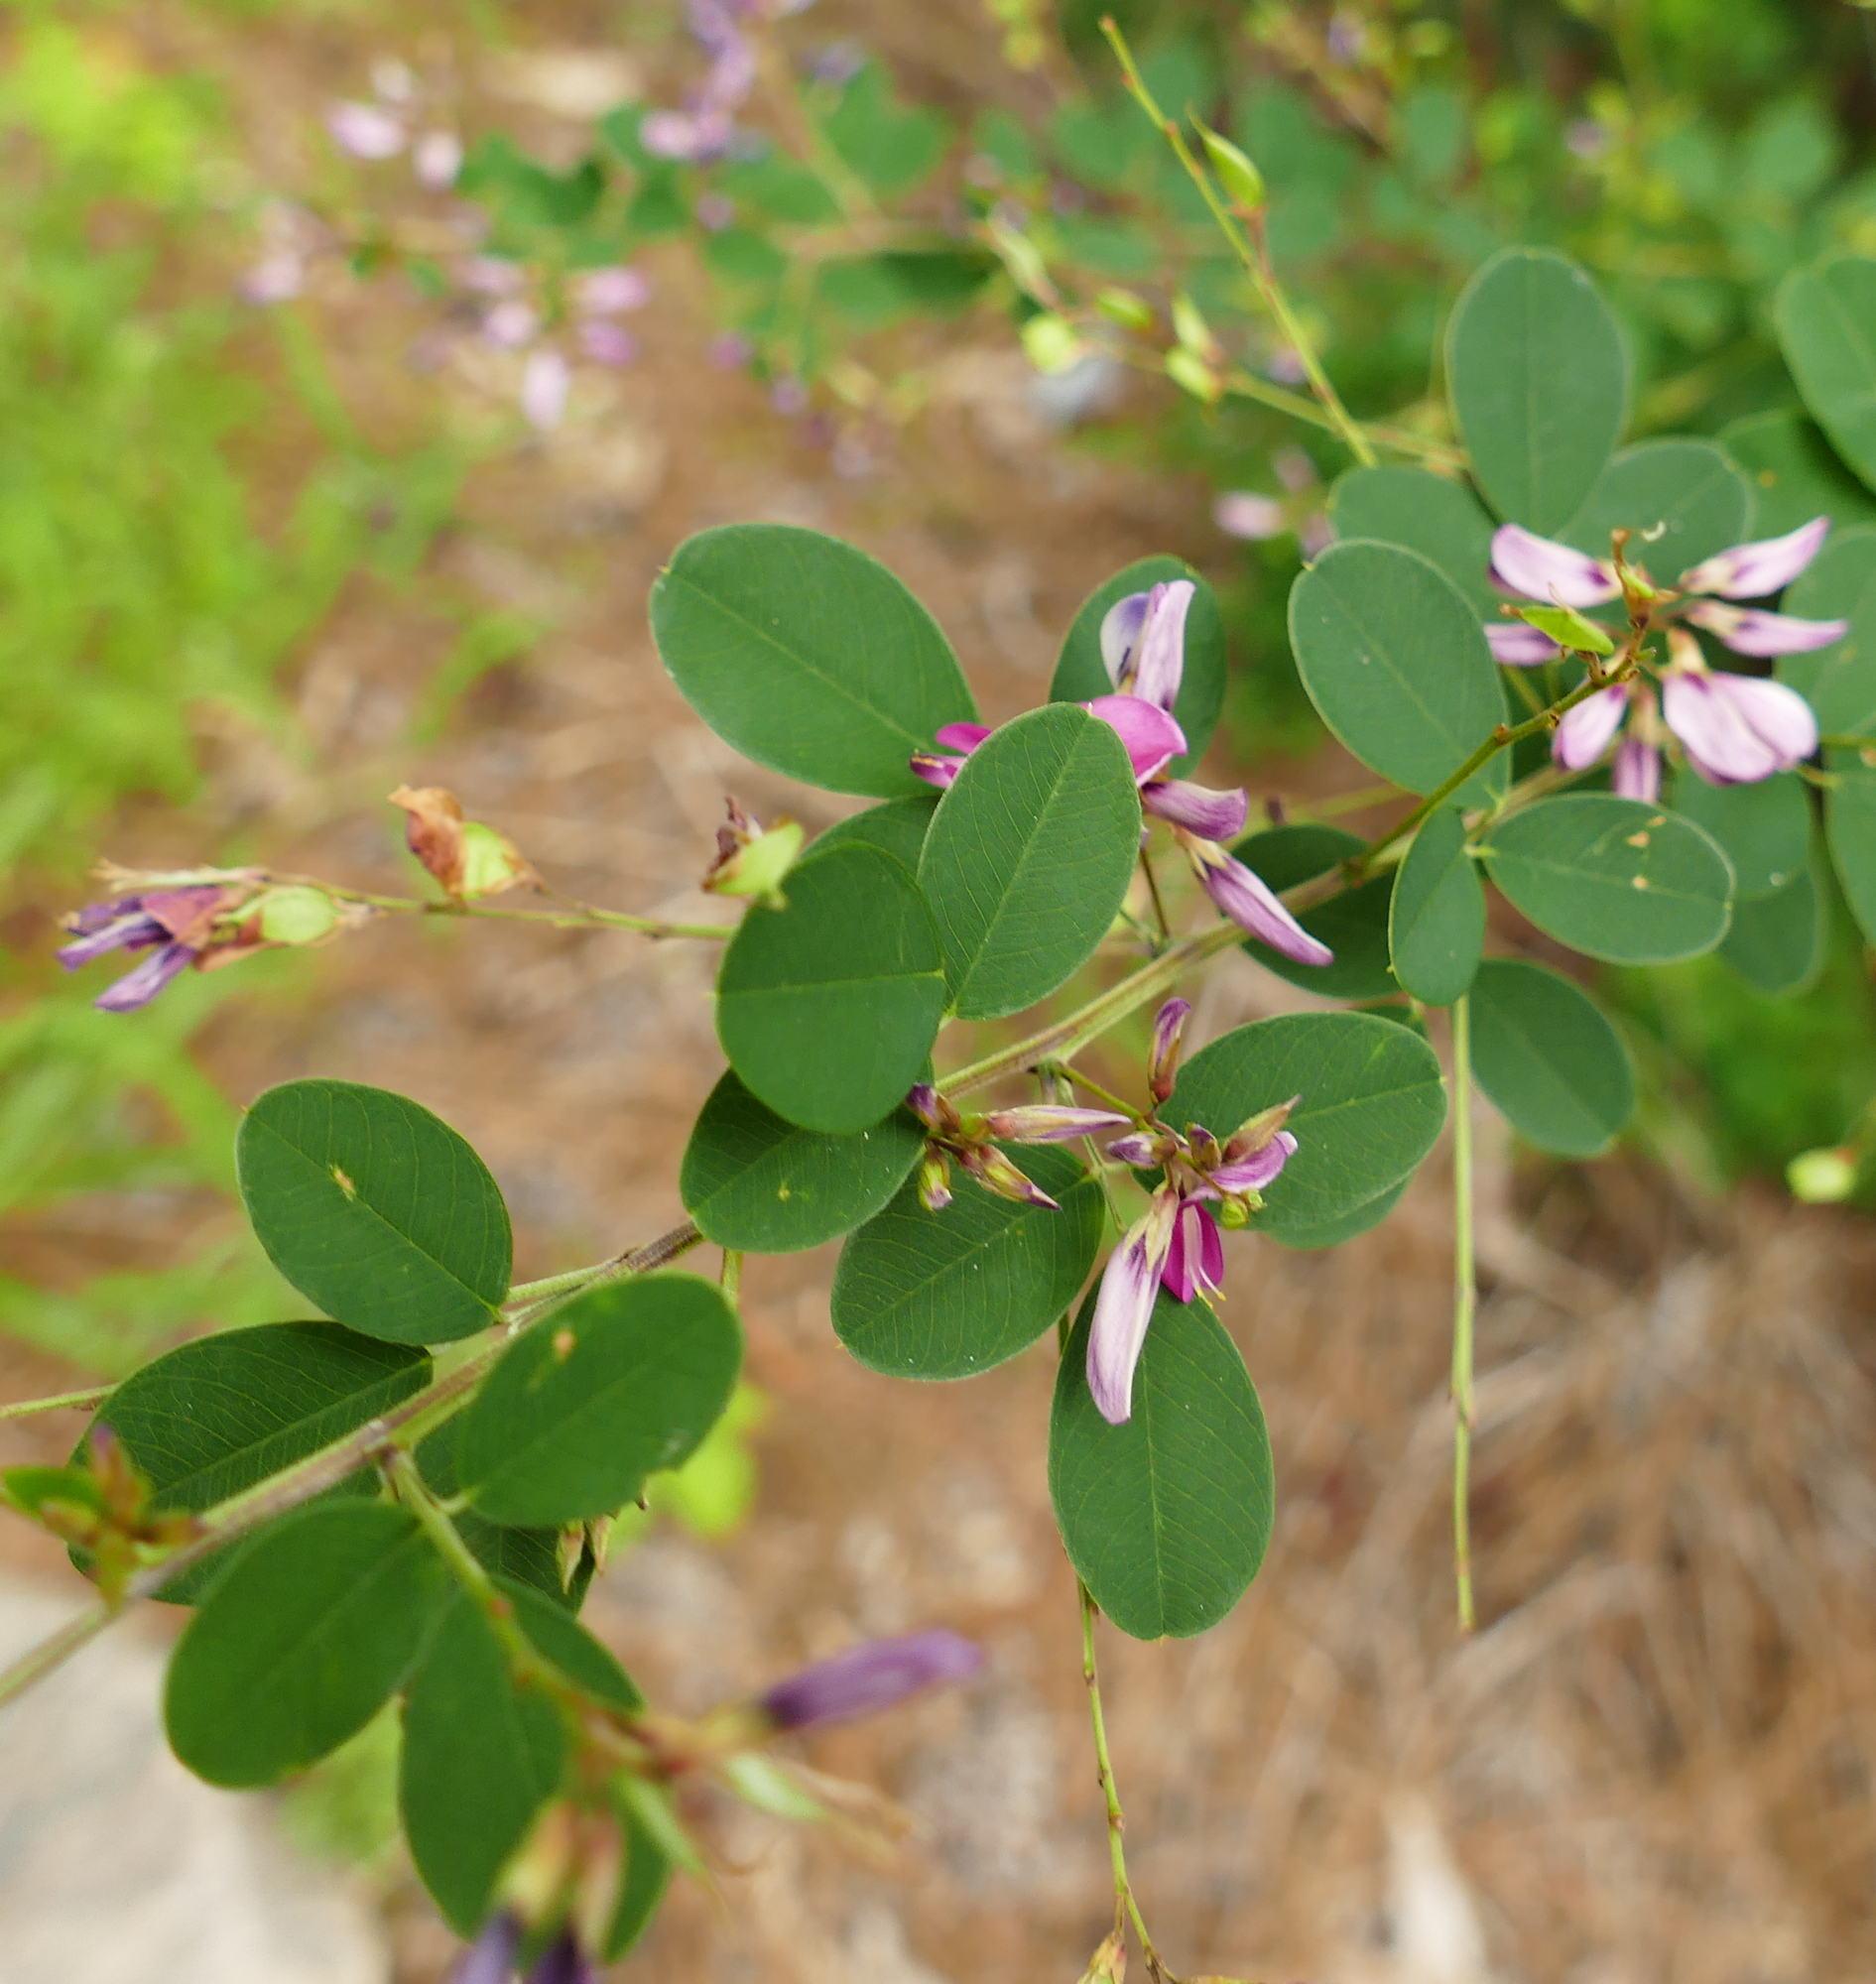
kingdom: Plantae
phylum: Tracheophyta
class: Magnoliopsida
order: Fabales
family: Fabaceae
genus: Lespedeza
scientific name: Lespedeza bicolor
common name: Shrub lespedeza
